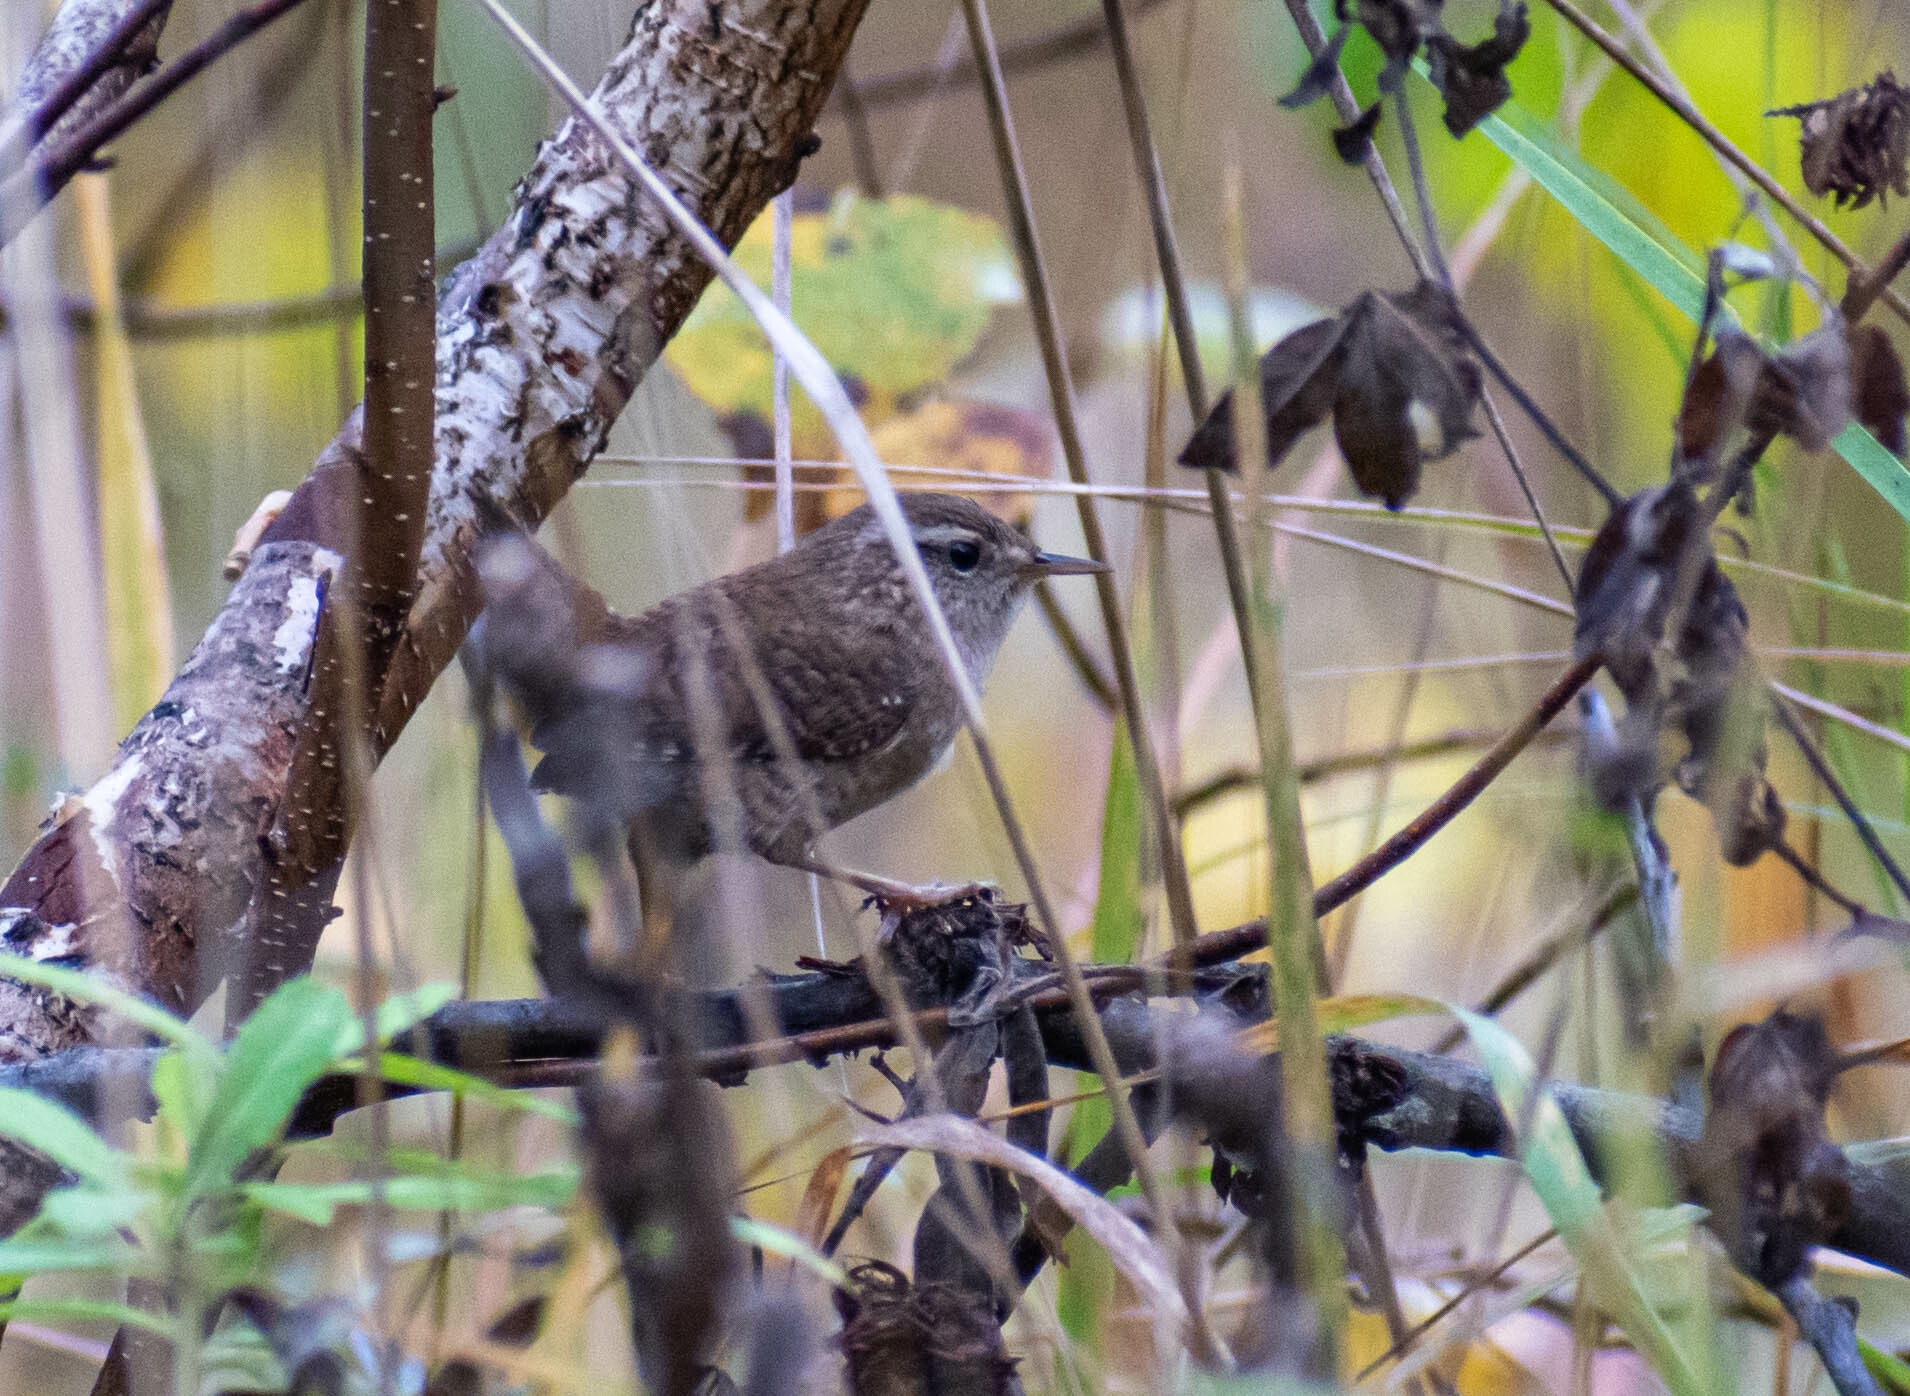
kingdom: Animalia
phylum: Chordata
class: Aves
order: Passeriformes
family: Troglodytidae
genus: Troglodytes
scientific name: Troglodytes troglodytes
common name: Eurasian wren
